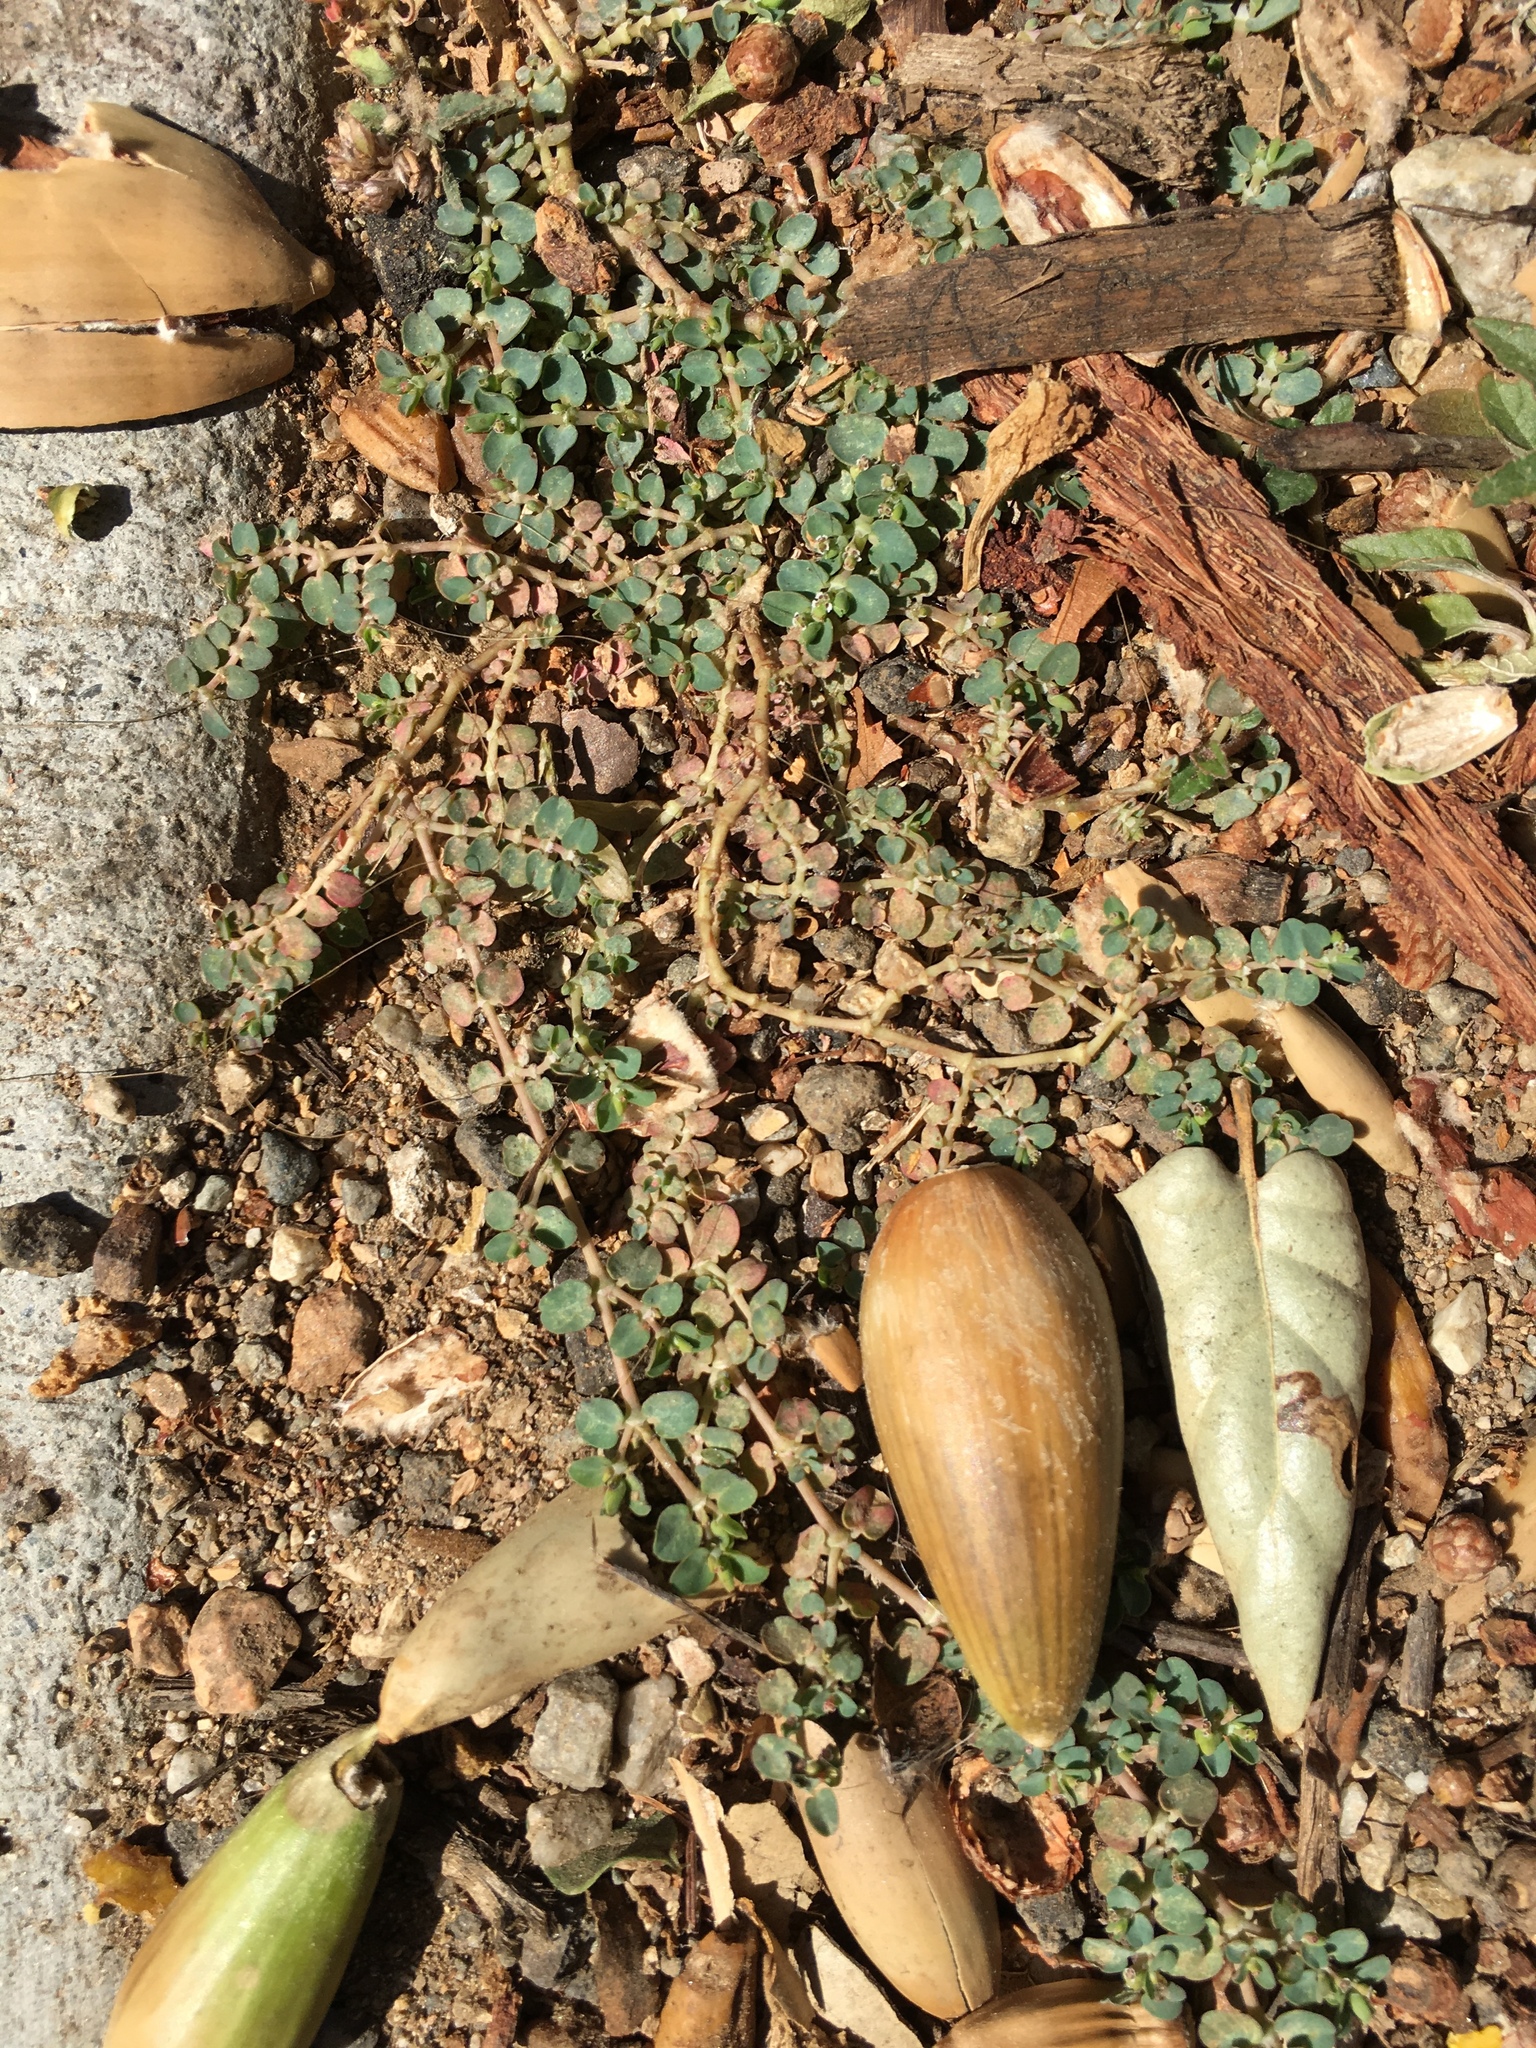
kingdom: Plantae
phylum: Tracheophyta
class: Magnoliopsida
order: Malpighiales
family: Euphorbiaceae
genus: Euphorbia
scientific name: Euphorbia serpens
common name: Matted sandmat
